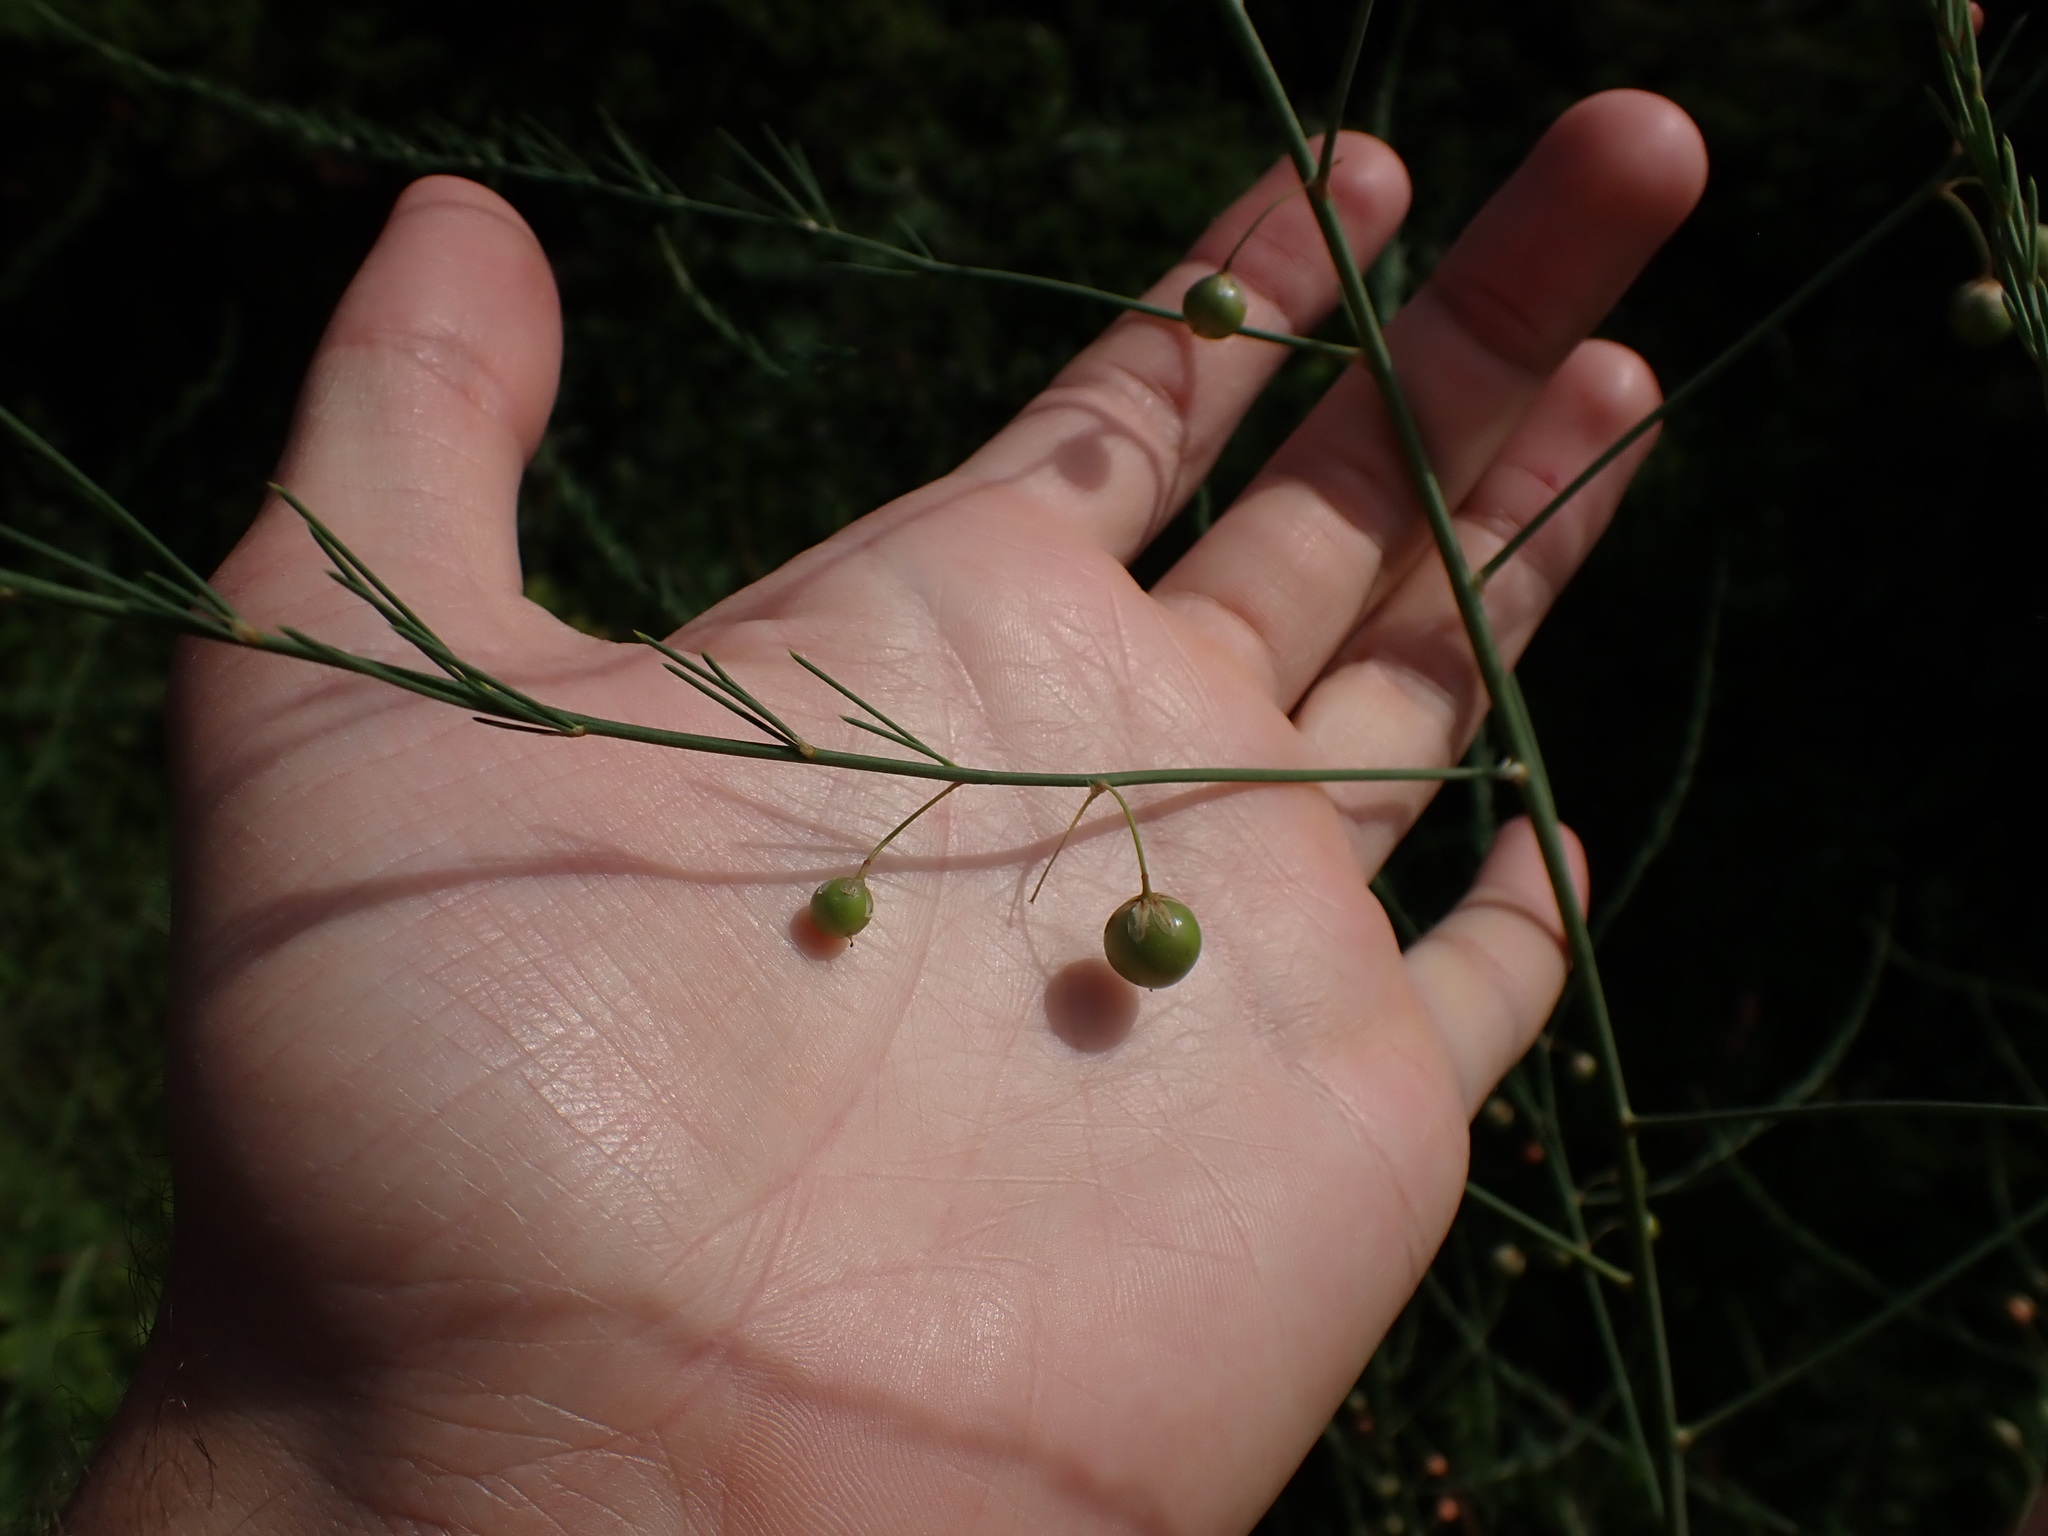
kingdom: Plantae
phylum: Tracheophyta
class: Liliopsida
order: Asparagales
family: Asparagaceae
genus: Asparagus
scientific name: Asparagus officinalis
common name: Garden asparagus
